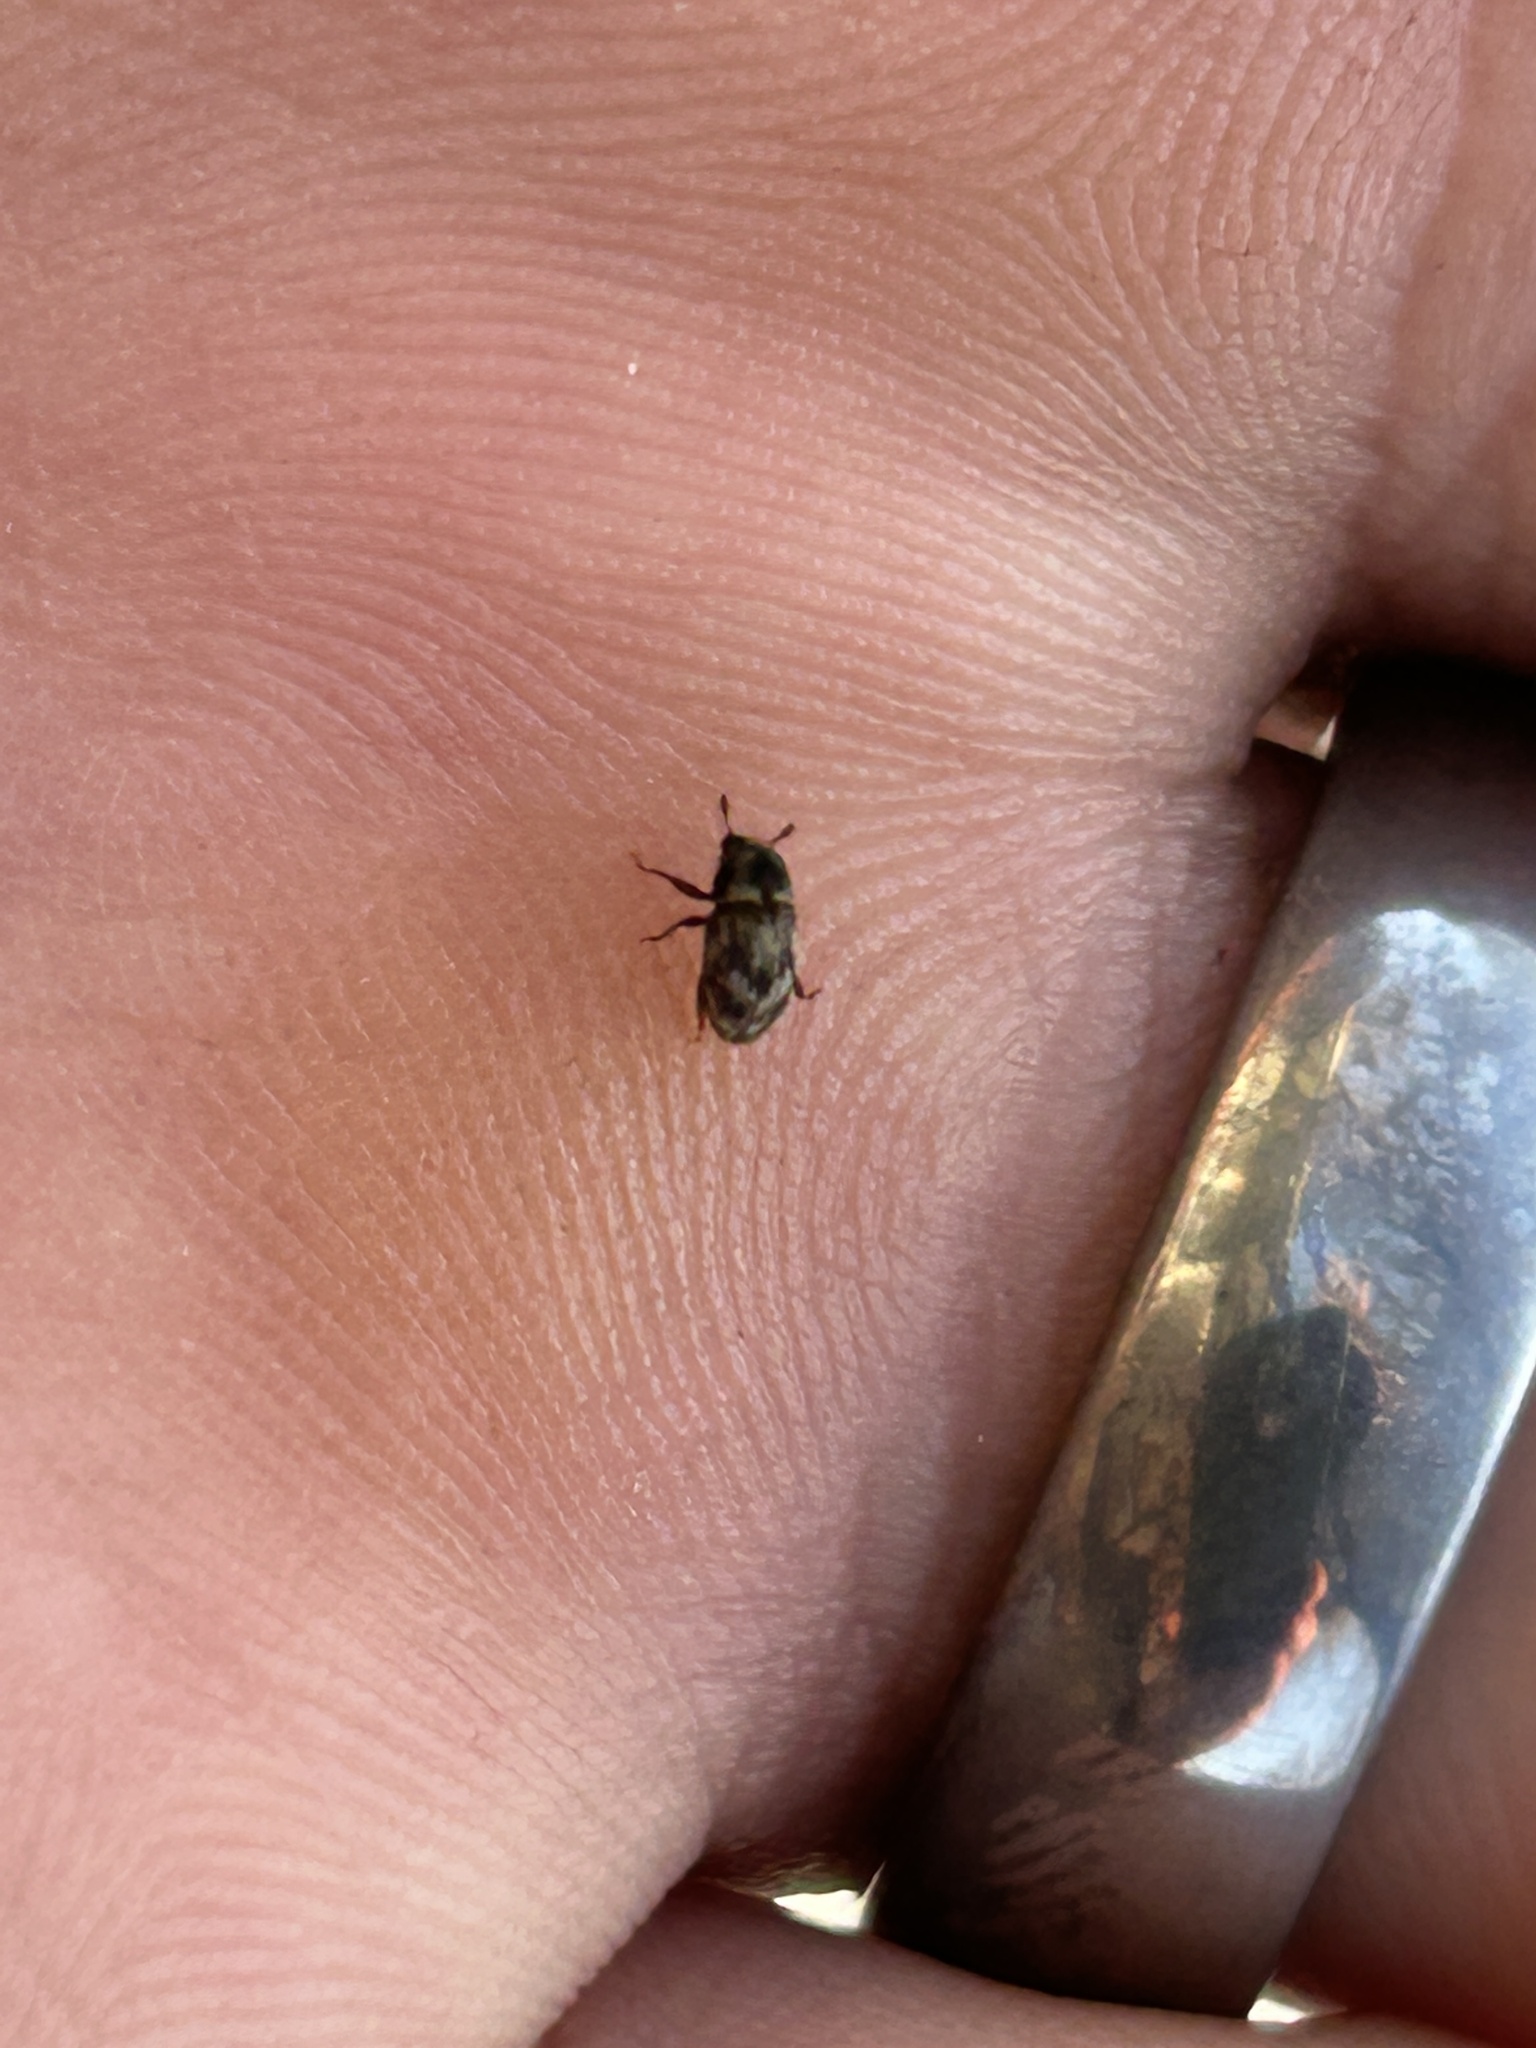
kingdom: Animalia
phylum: Arthropoda
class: Insecta
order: Coleoptera
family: Curculionidae
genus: Hylesinus
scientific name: Hylesinus aculeatus
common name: Easter-ash bark beetle
